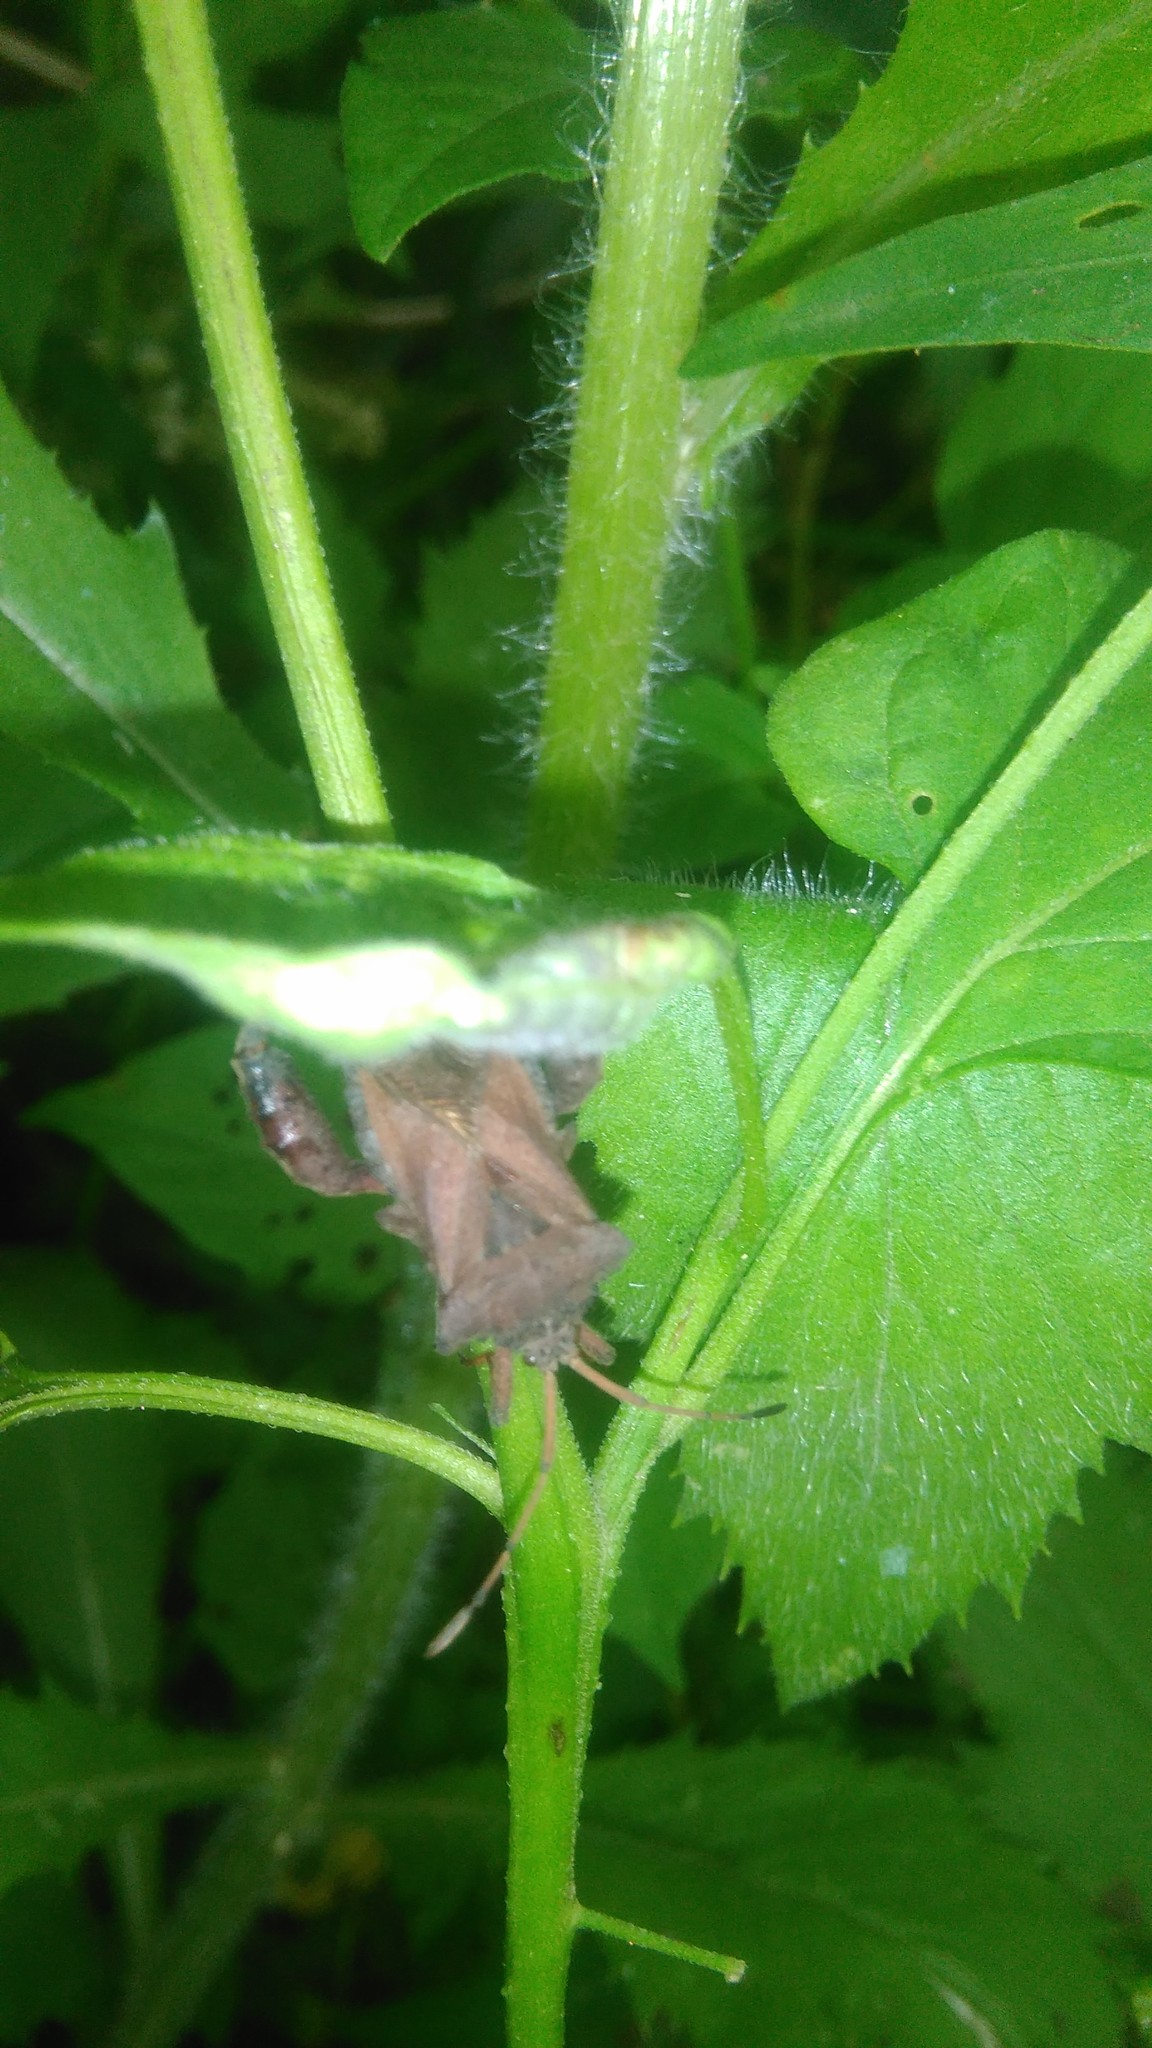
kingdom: Animalia
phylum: Arthropoda
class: Insecta
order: Hemiptera
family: Coreidae
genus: Camptischium
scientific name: Camptischium clavipes
